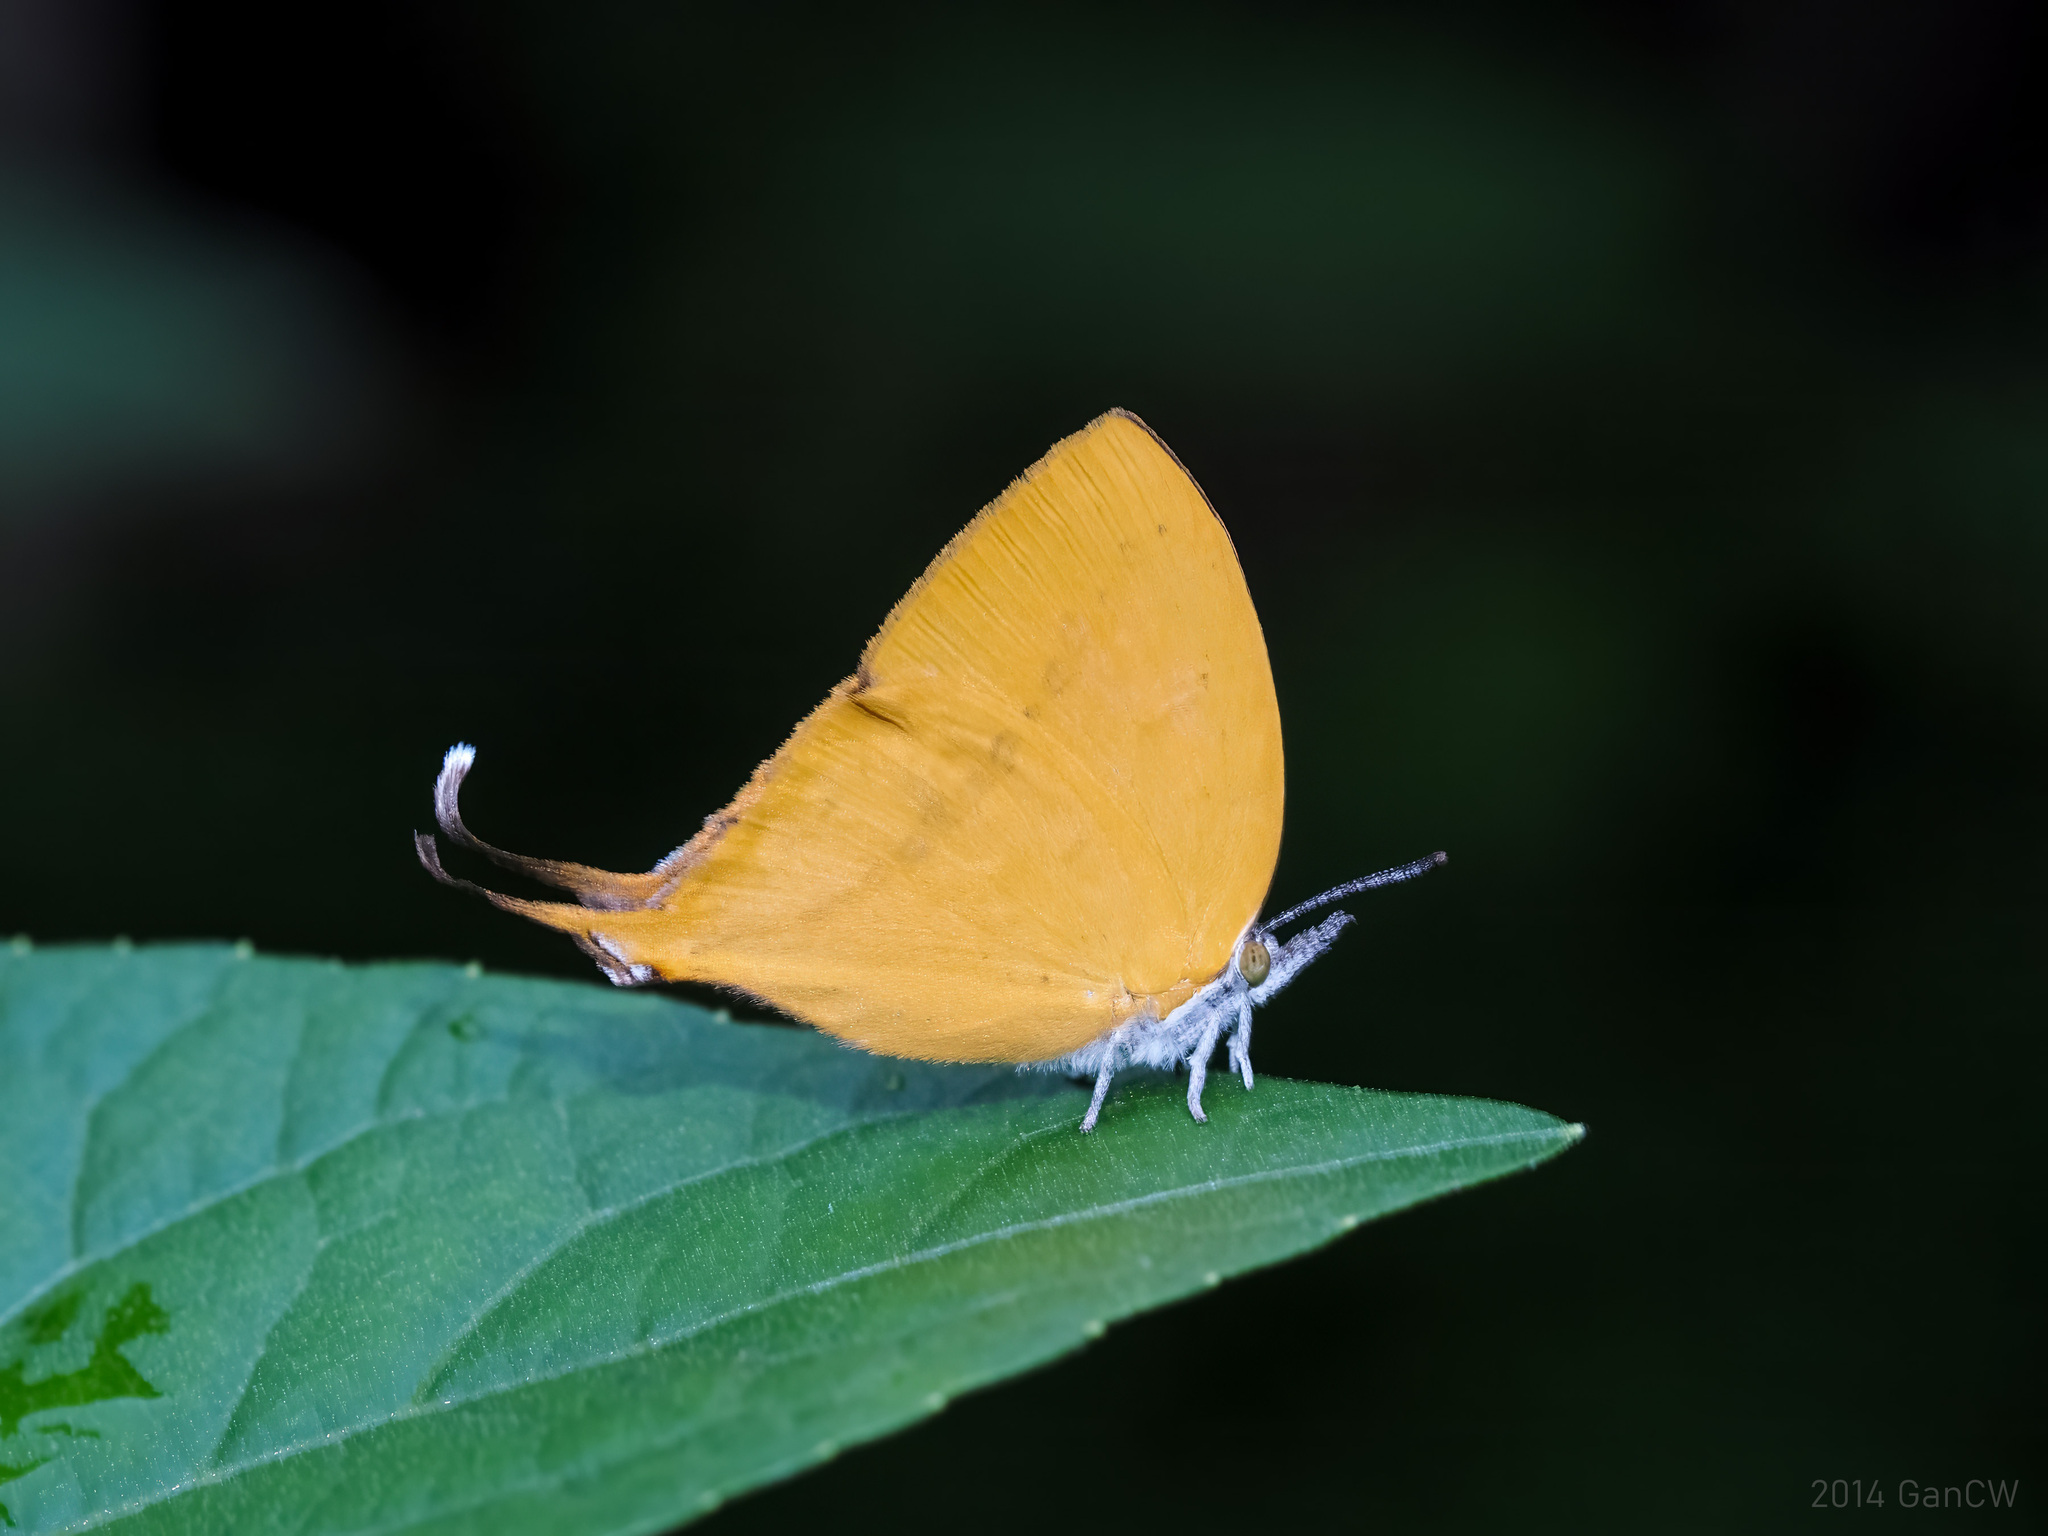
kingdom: Animalia
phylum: Arthropoda
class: Insecta
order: Lepidoptera
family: Lycaenidae
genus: Loxura
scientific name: Loxura atymnus
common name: Common yamfly
